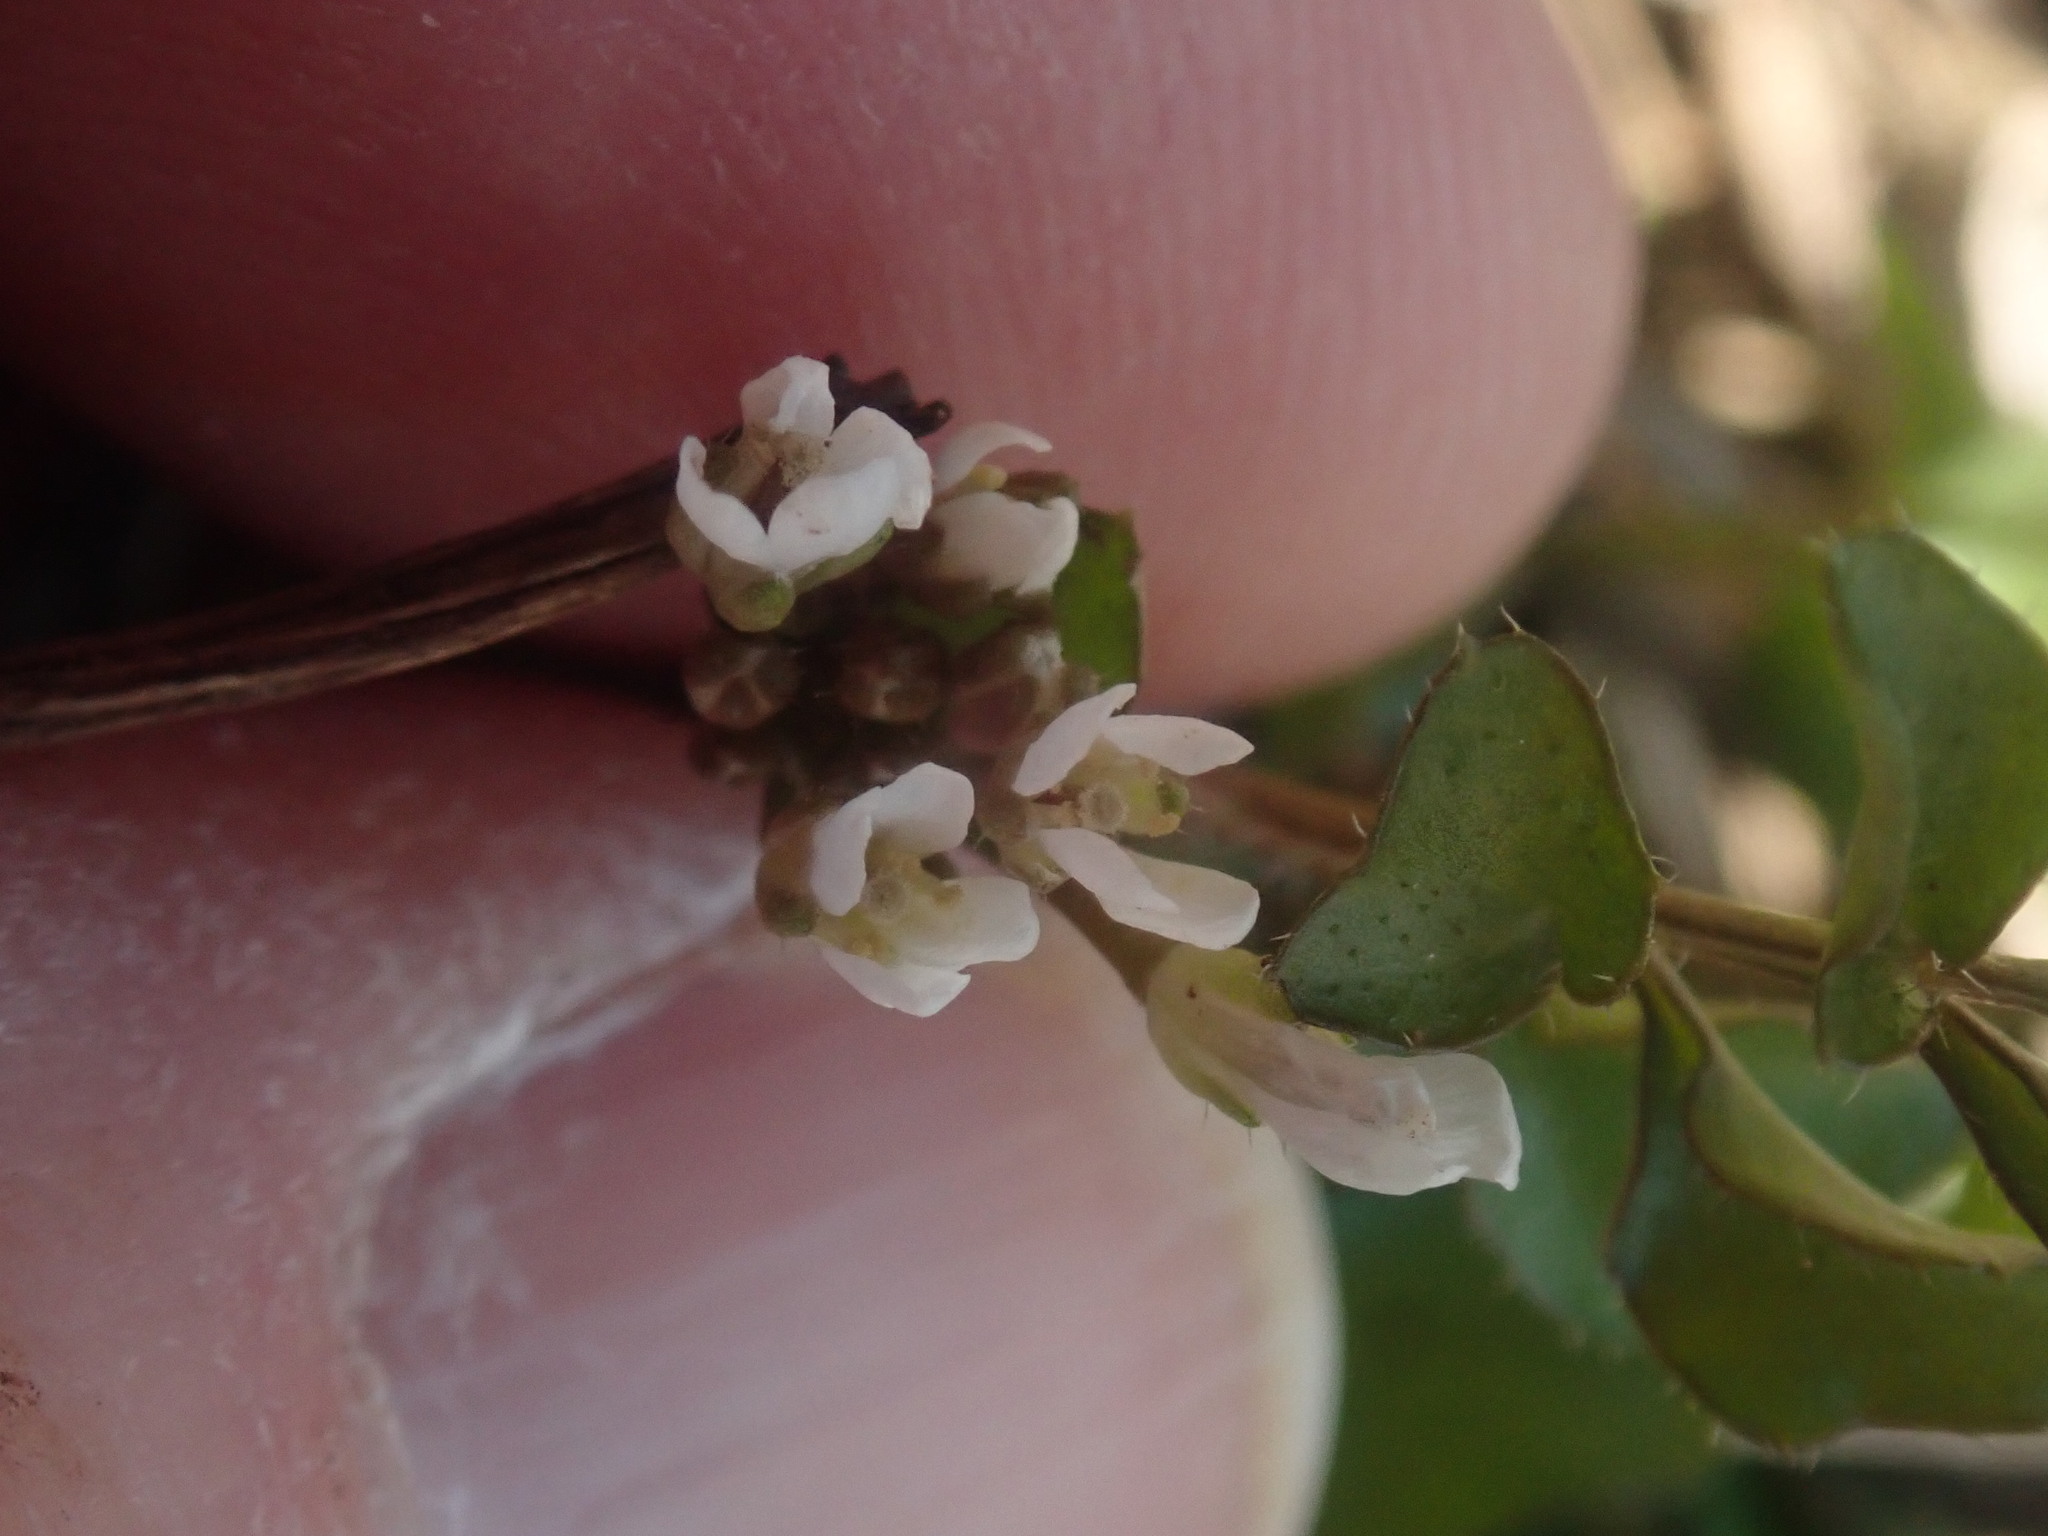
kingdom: Plantae
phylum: Tracheophyta
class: Magnoliopsida
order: Brassicales
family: Brassicaceae
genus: Cardamine
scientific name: Cardamine hirsuta
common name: Hairy bittercress
